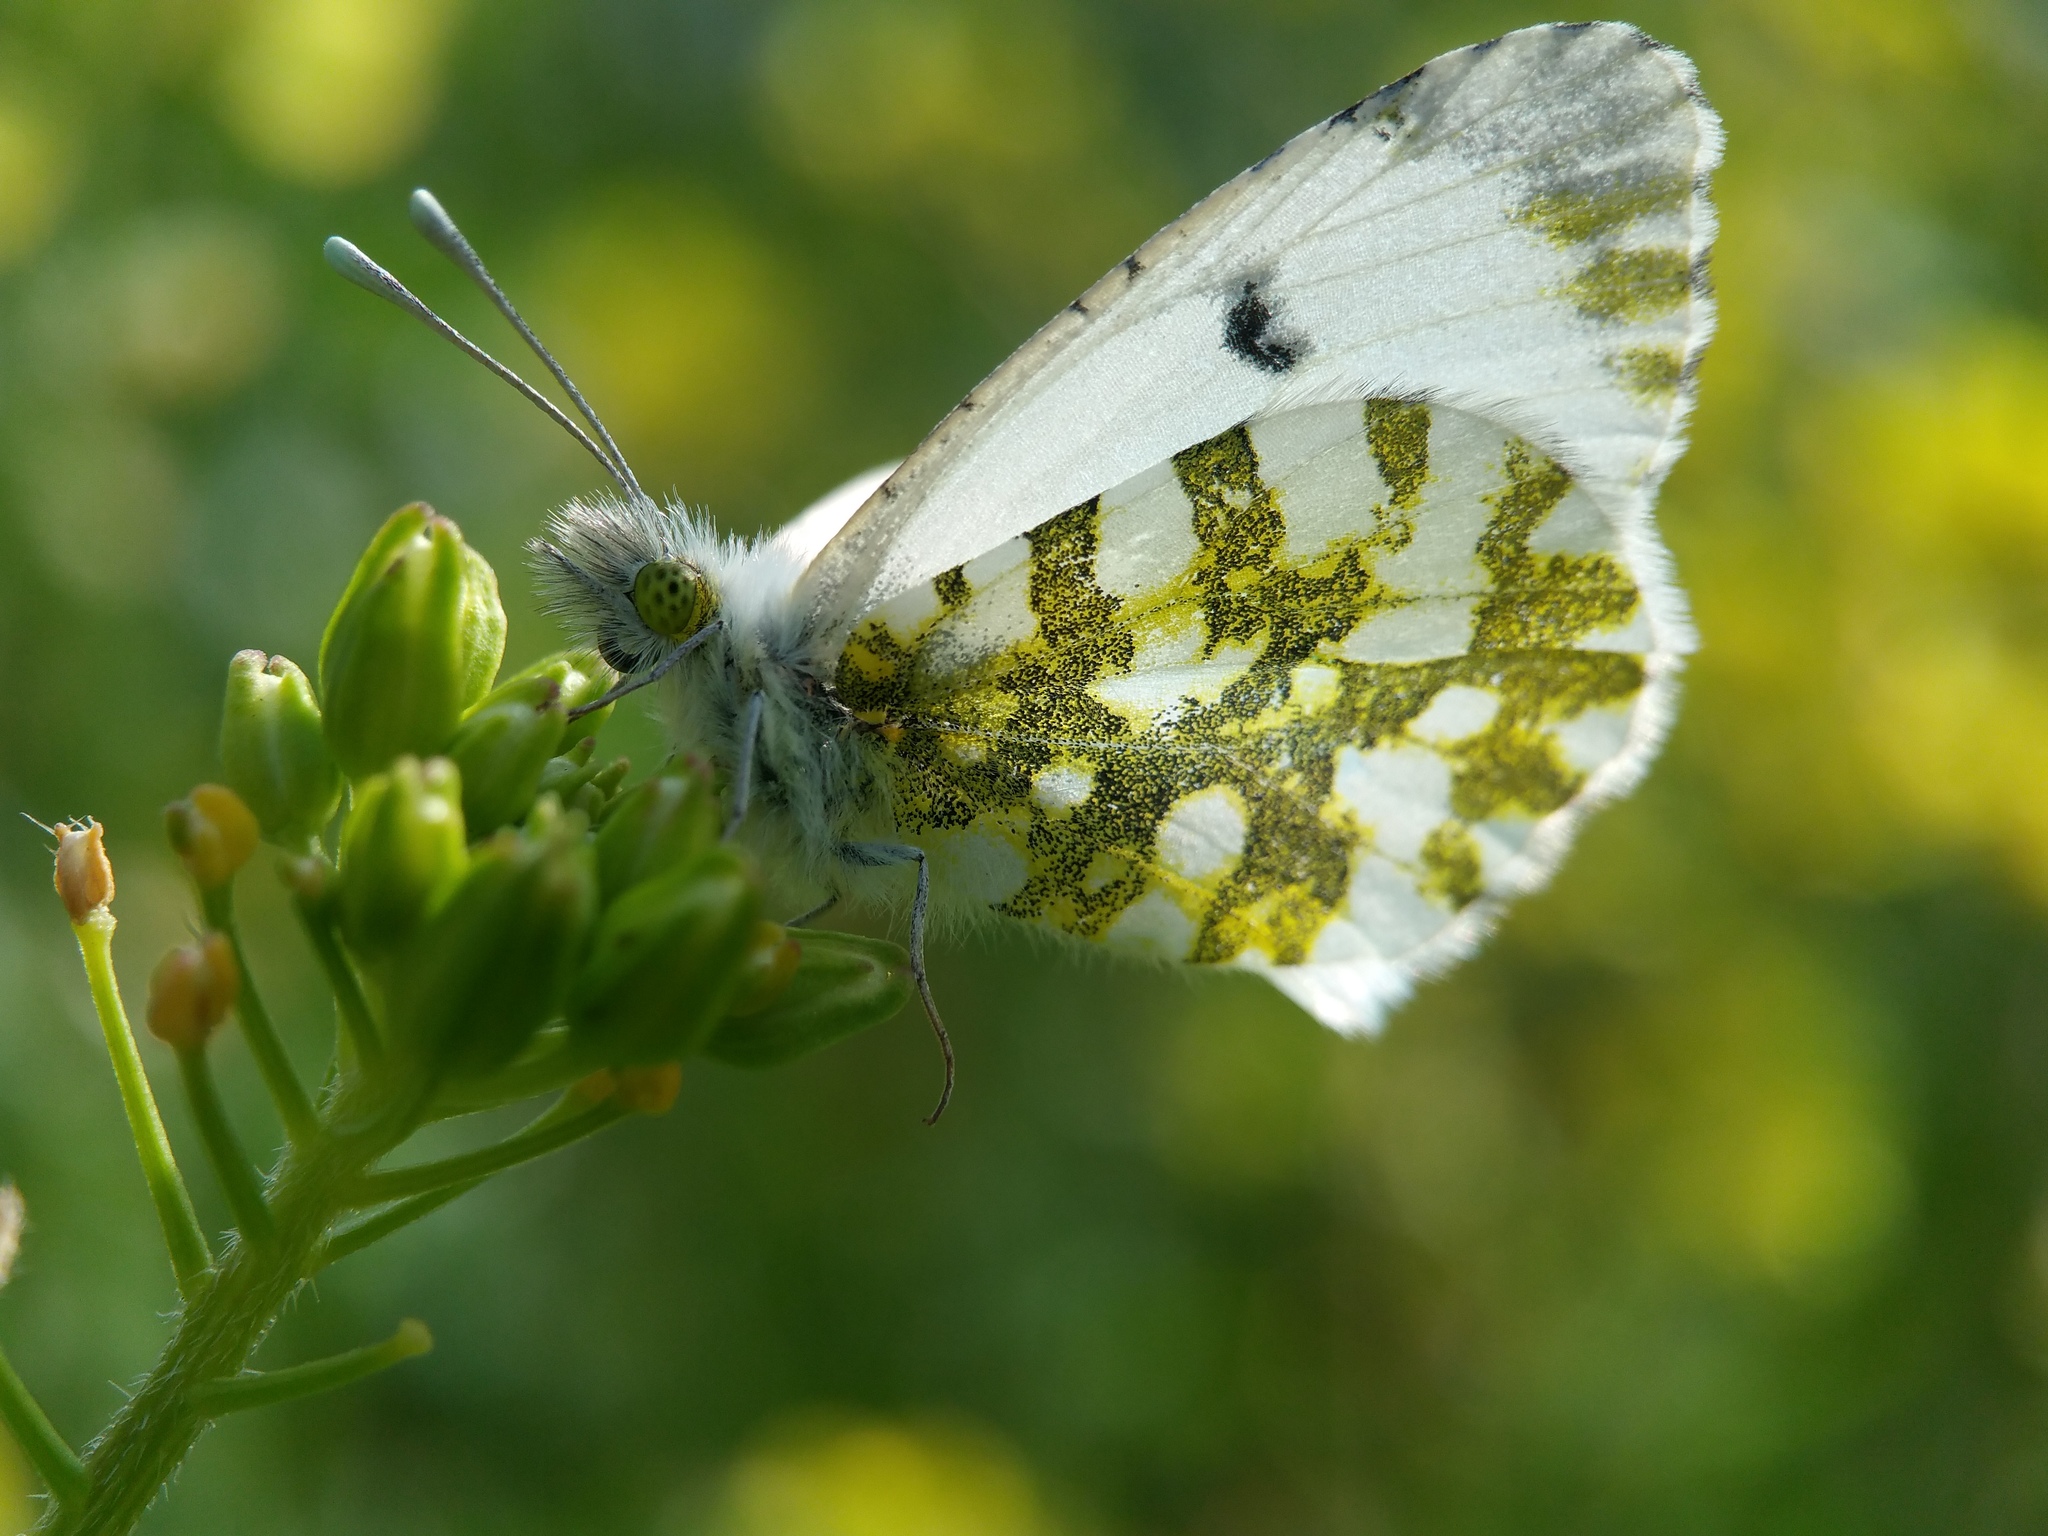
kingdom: Animalia
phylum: Arthropoda
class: Insecta
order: Lepidoptera
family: Pieridae
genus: Anthocharis
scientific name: Anthocharis cardamines
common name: Orange-tip
